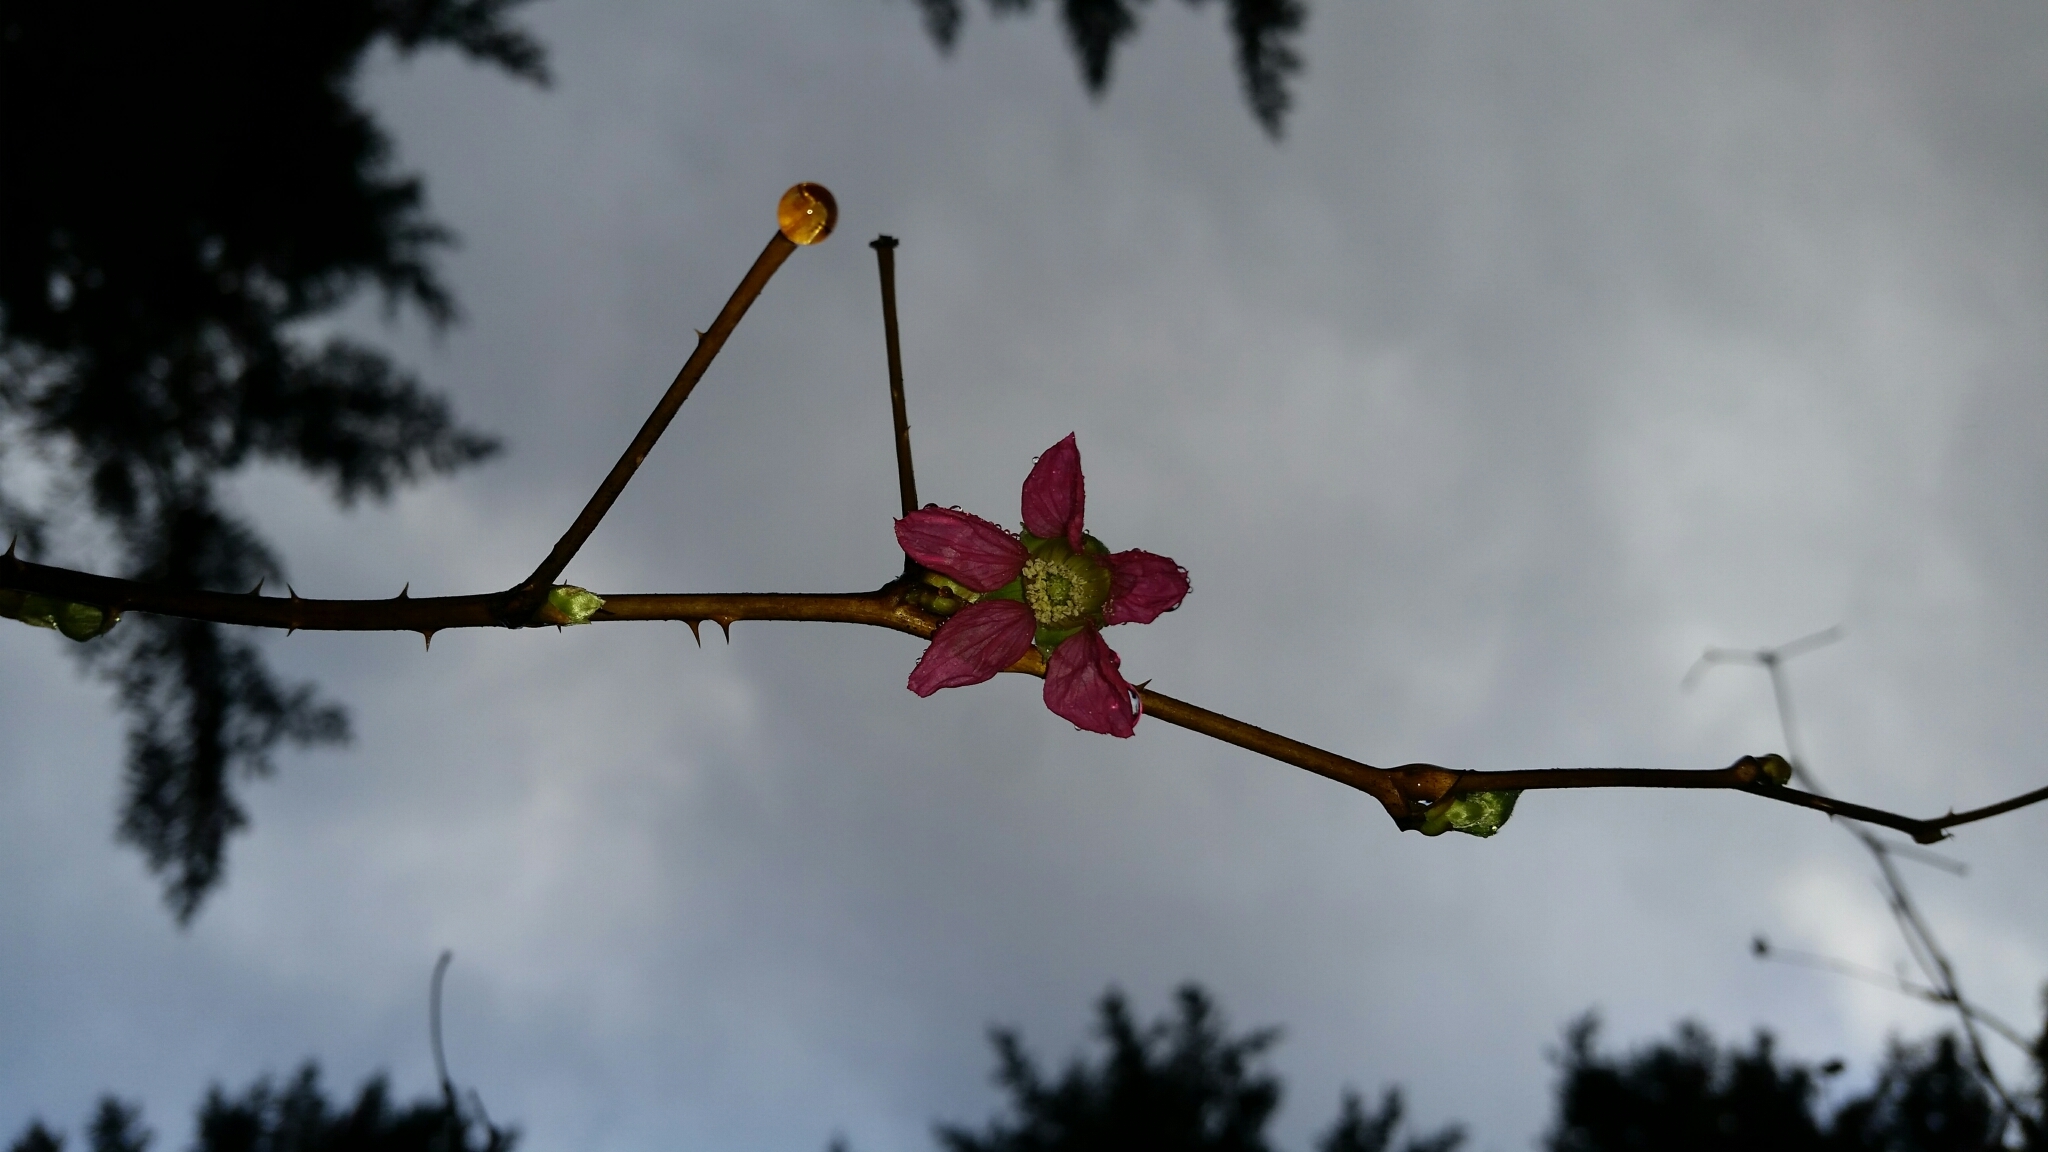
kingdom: Plantae
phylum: Tracheophyta
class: Magnoliopsida
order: Rosales
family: Rosaceae
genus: Rubus
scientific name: Rubus spectabilis
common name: Salmonberry
